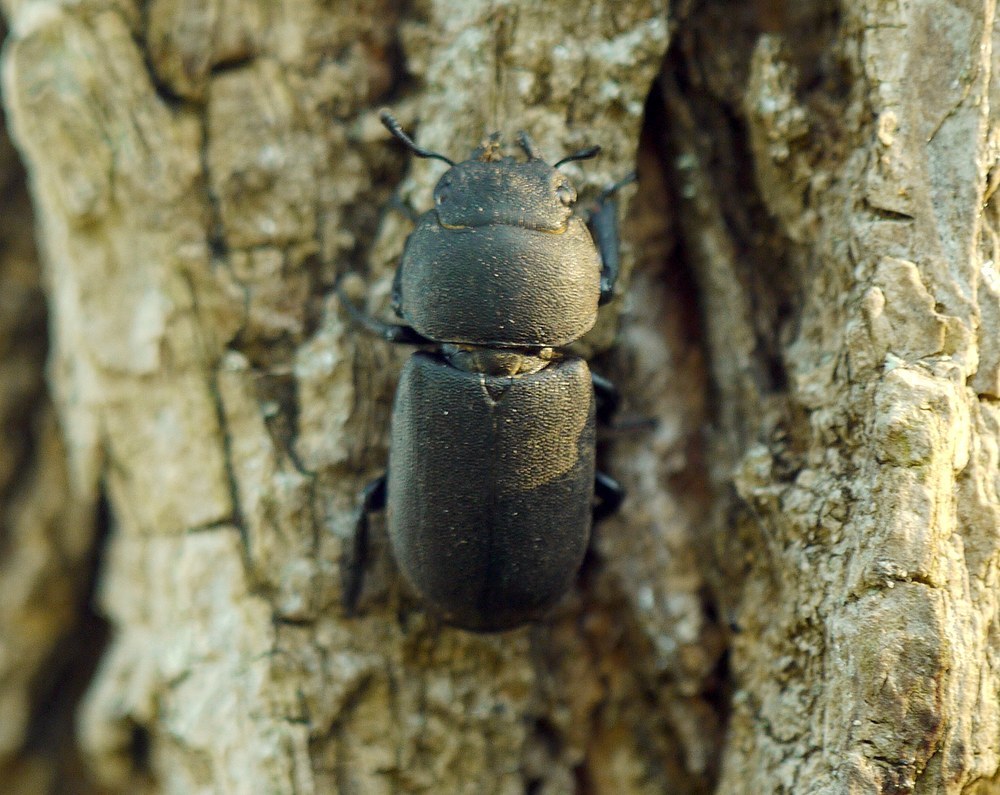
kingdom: Animalia
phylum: Arthropoda
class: Insecta
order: Coleoptera
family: Lucanidae
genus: Dorcus
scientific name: Dorcus parallelipipedus
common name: Lesser stag beetle
